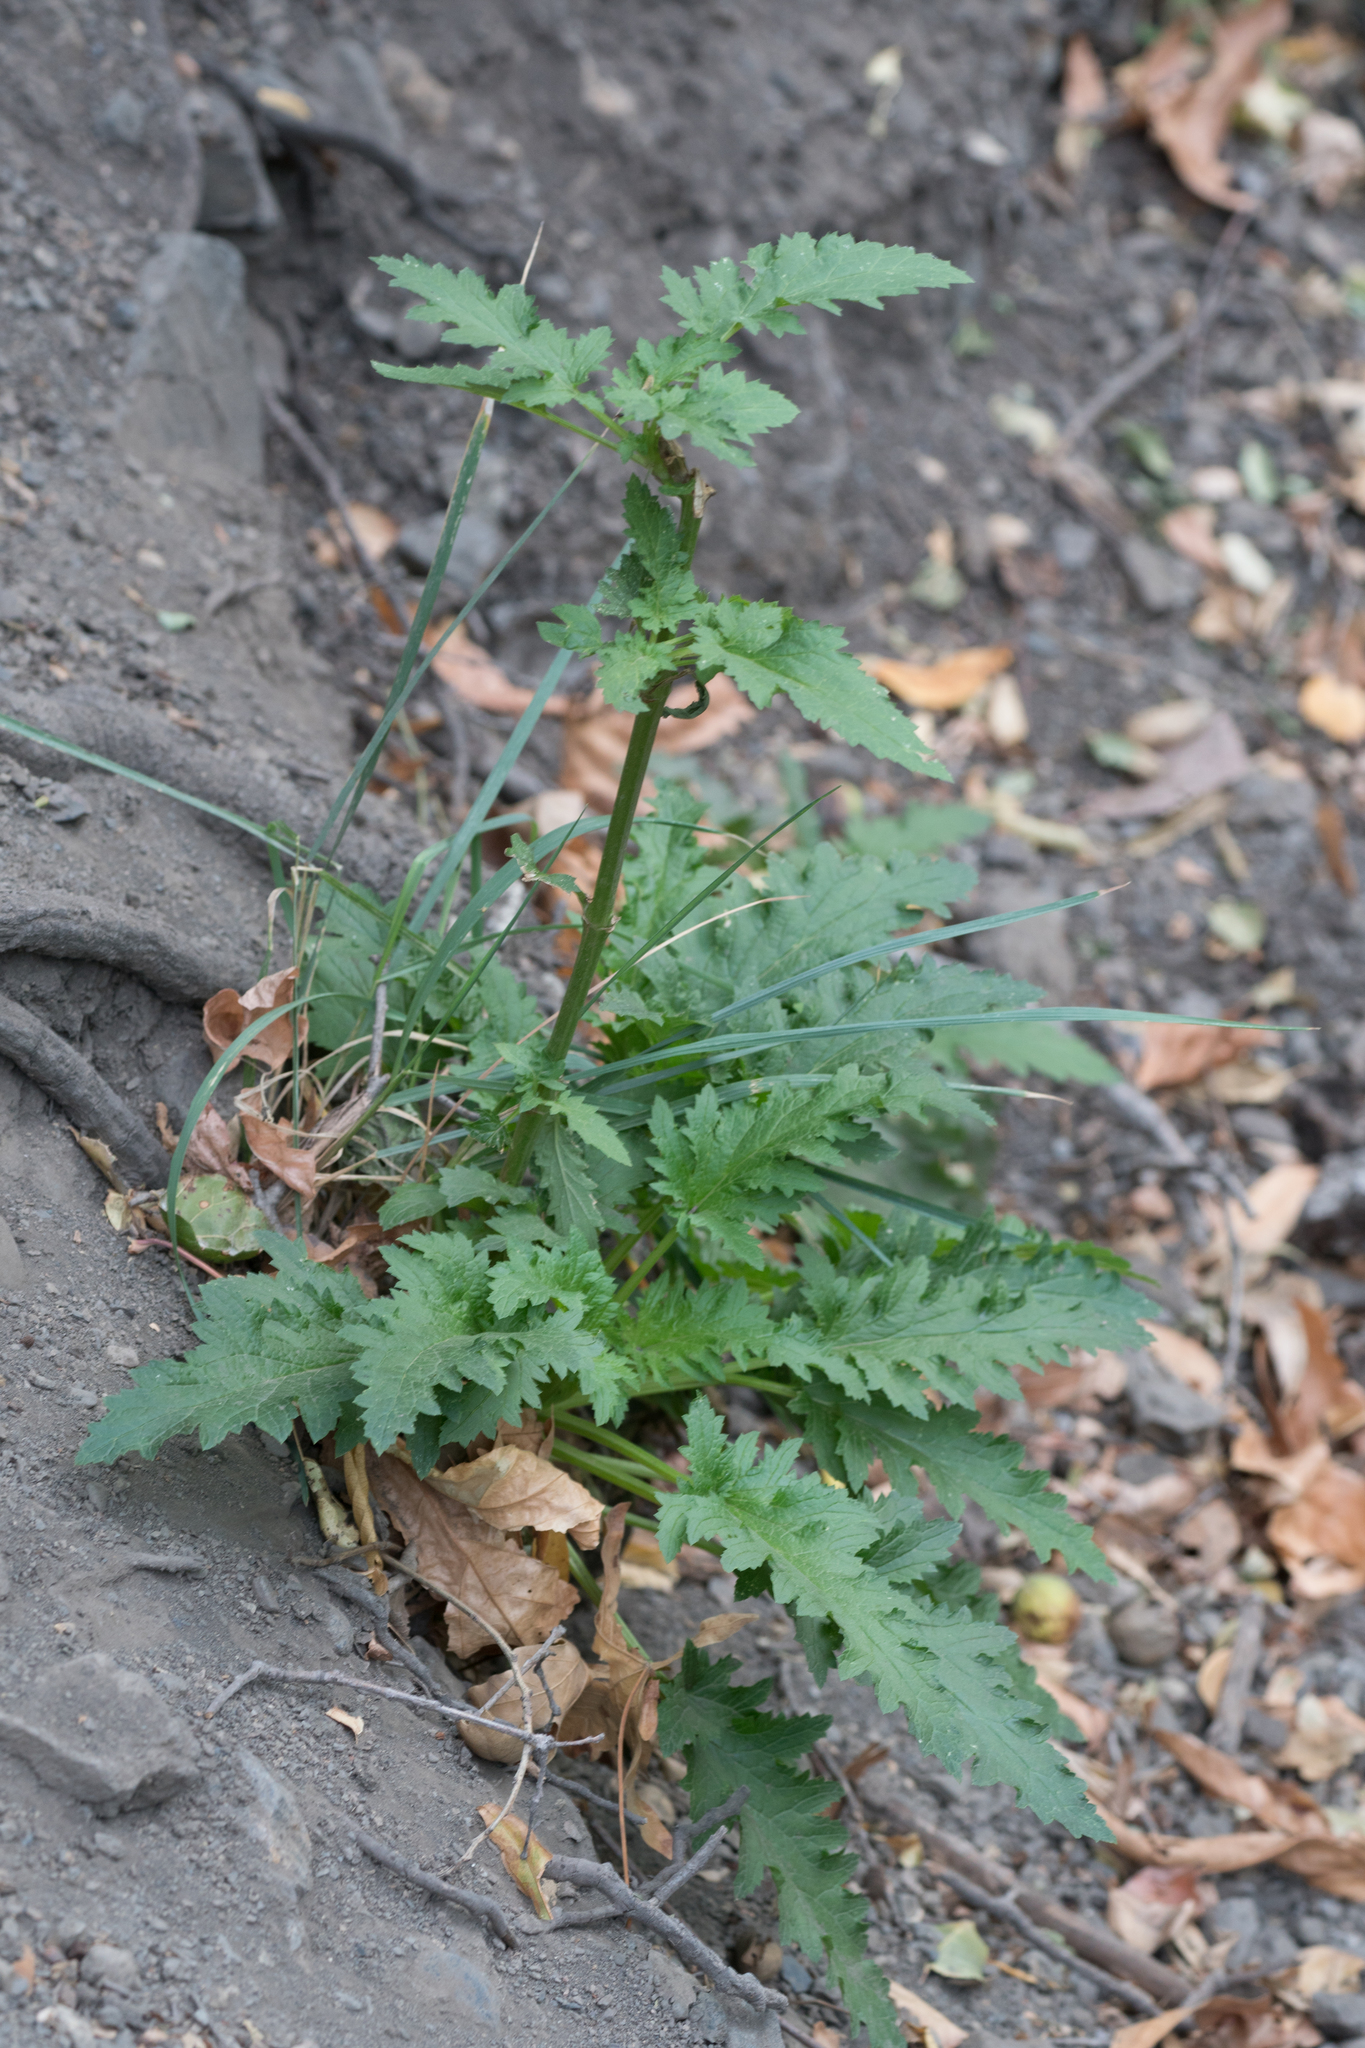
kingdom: Plantae
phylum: Tracheophyta
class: Magnoliopsida
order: Lamiales
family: Scrophulariaceae
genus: Scrophularia
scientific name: Scrophularia californica
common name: California figwort
